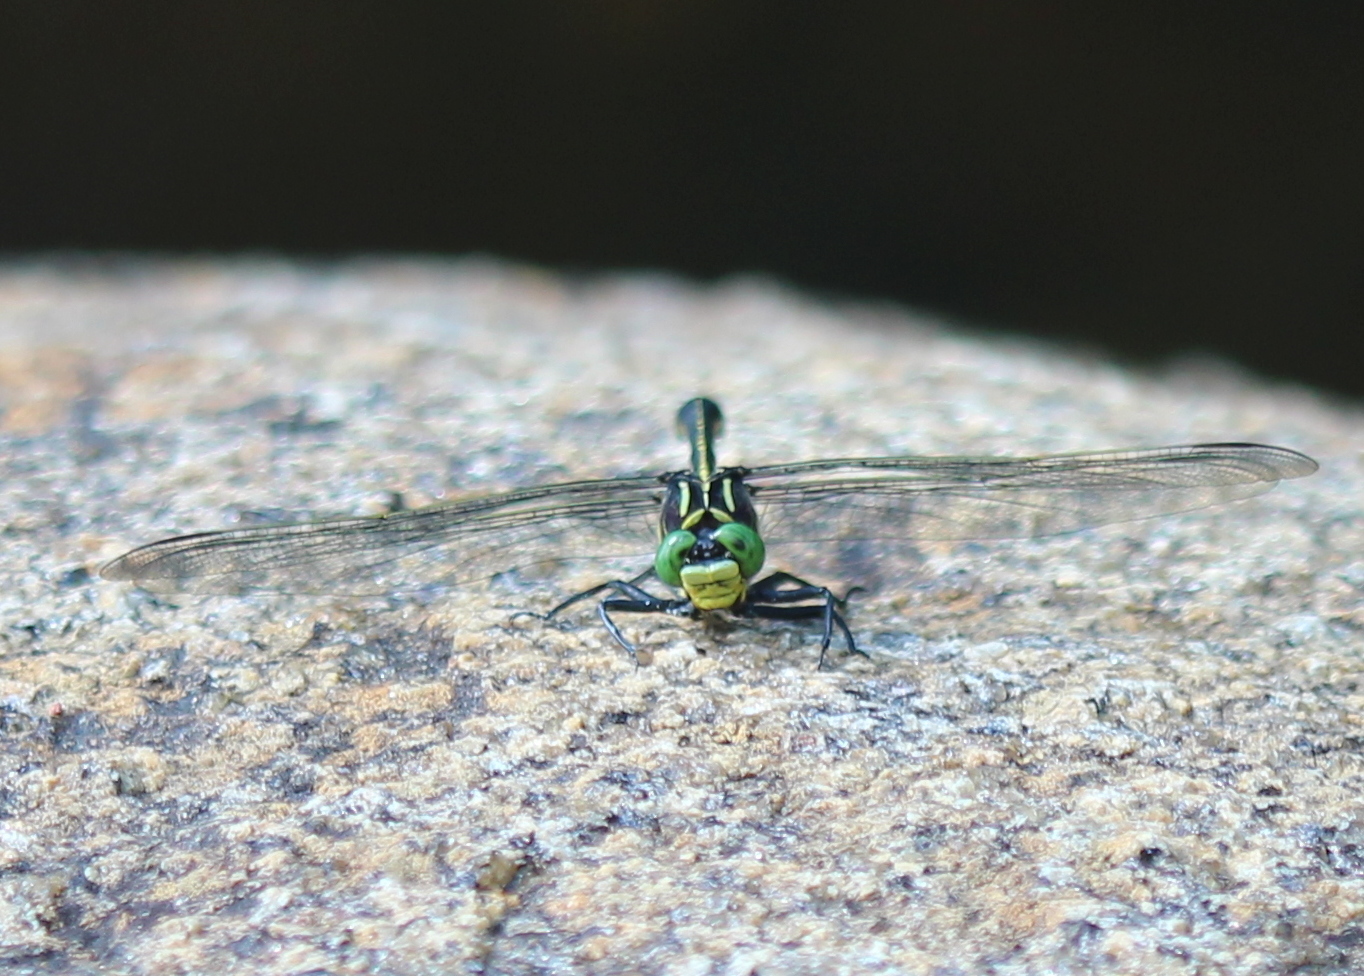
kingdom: Animalia
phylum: Arthropoda
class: Insecta
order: Odonata
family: Gomphidae
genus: Hagenius
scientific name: Hagenius brevistylus
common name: Dragonhunter
